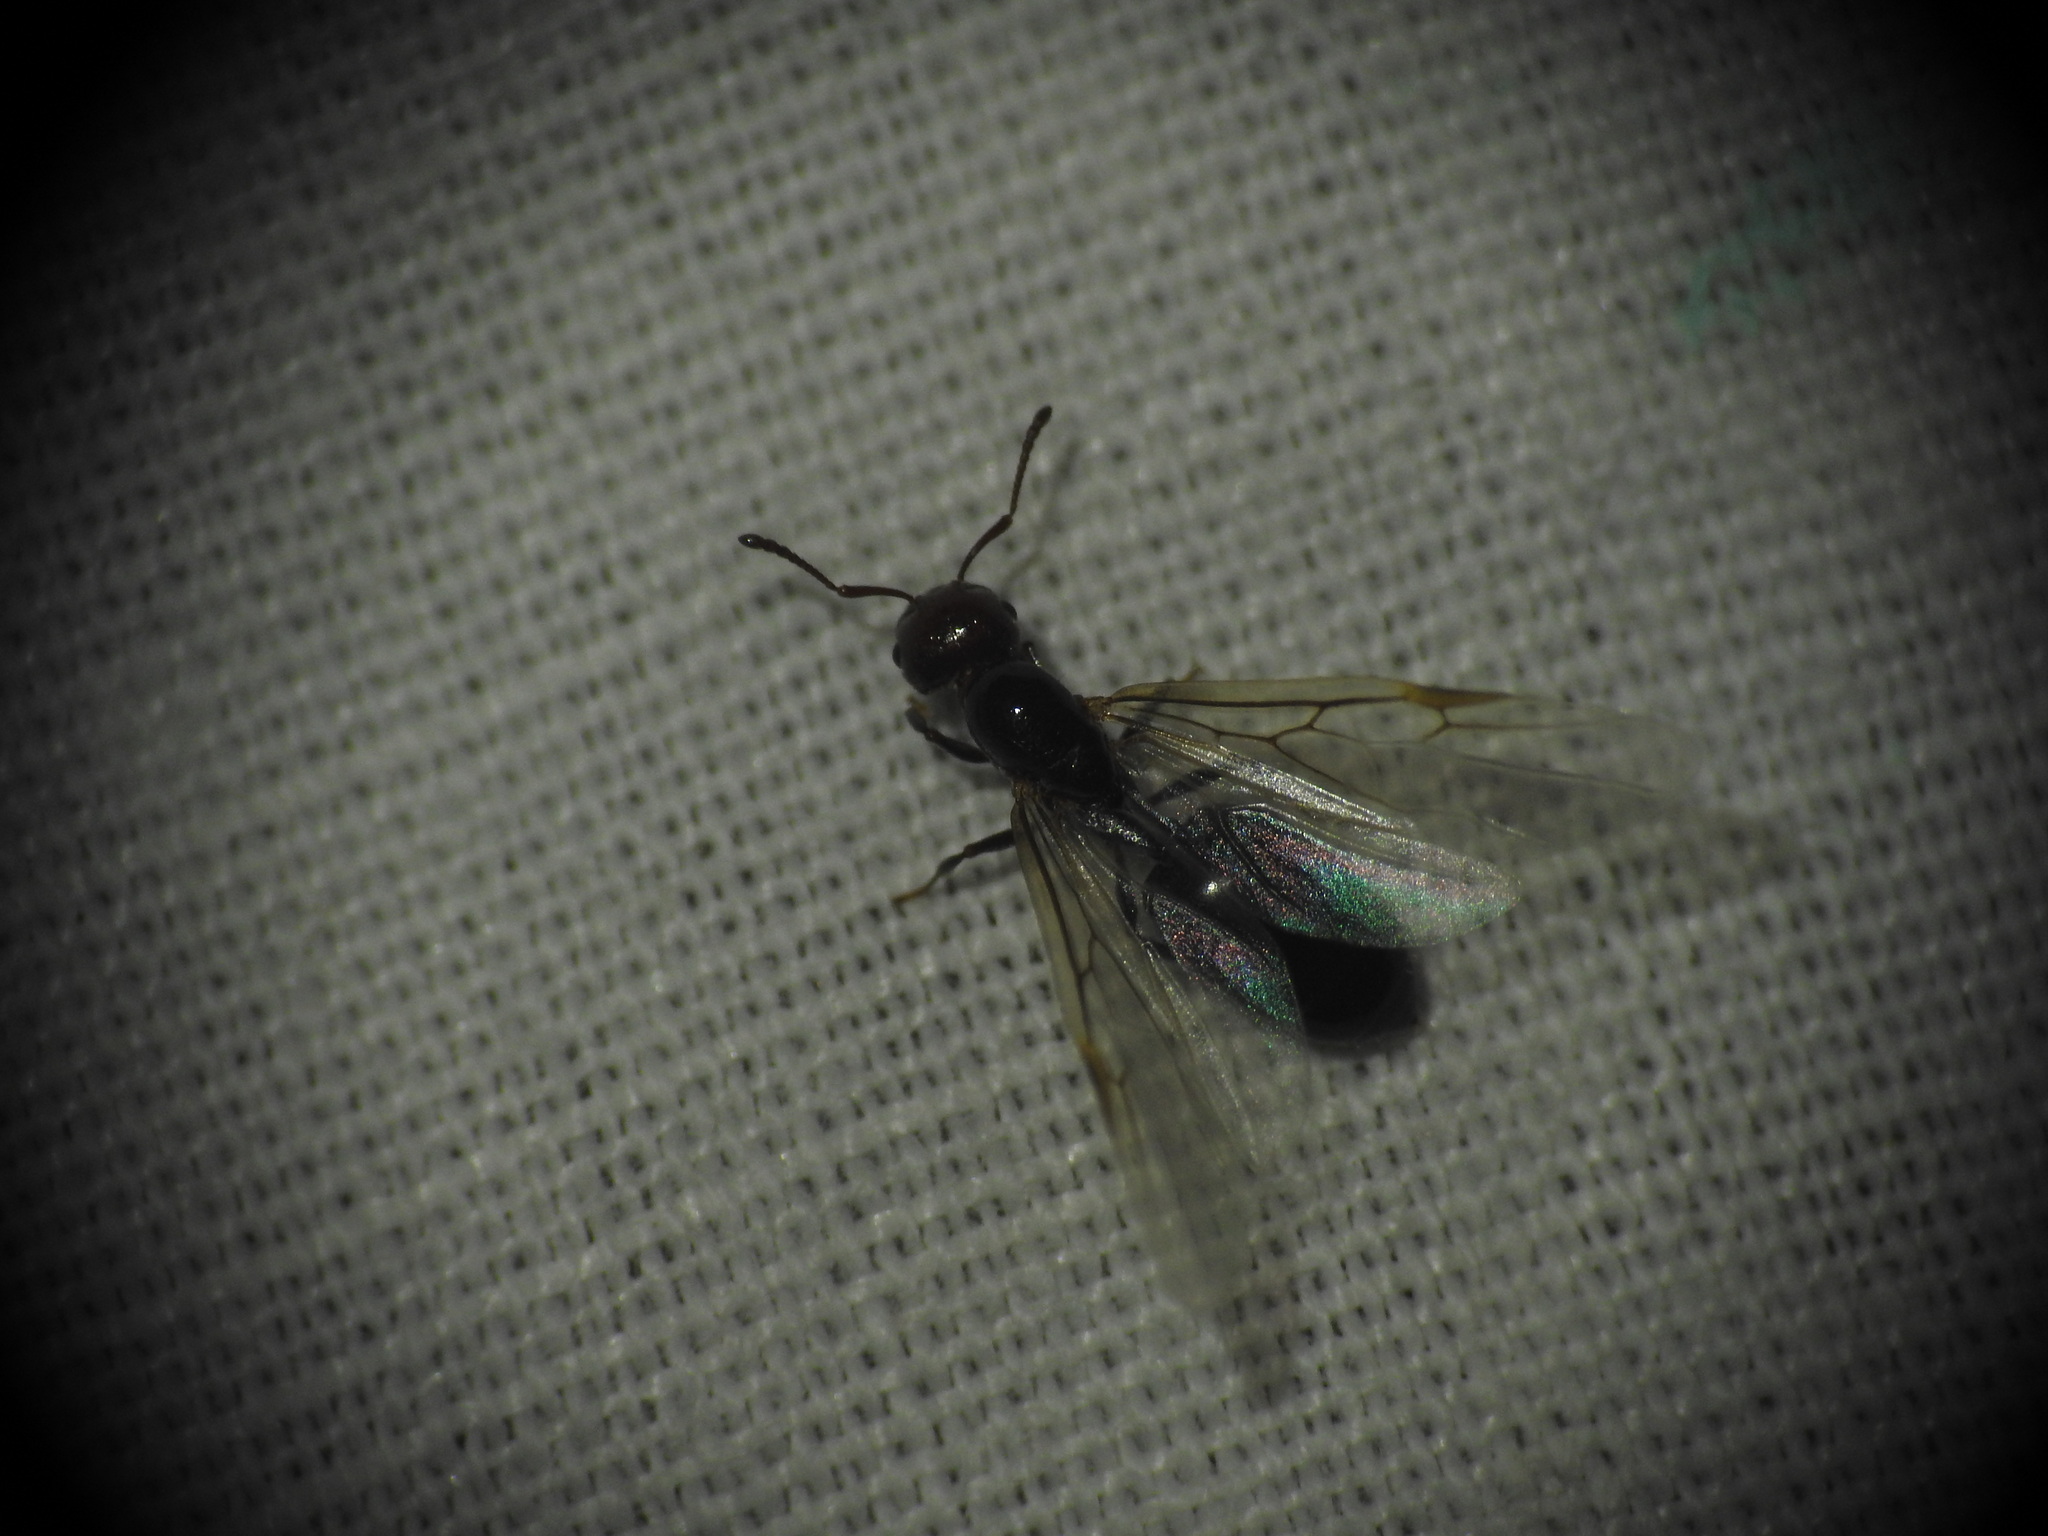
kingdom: Animalia
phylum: Arthropoda
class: Insecta
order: Hymenoptera
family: Formicidae
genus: Crematogaster
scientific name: Crematogaster scutellaris
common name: Fourmi du liège
